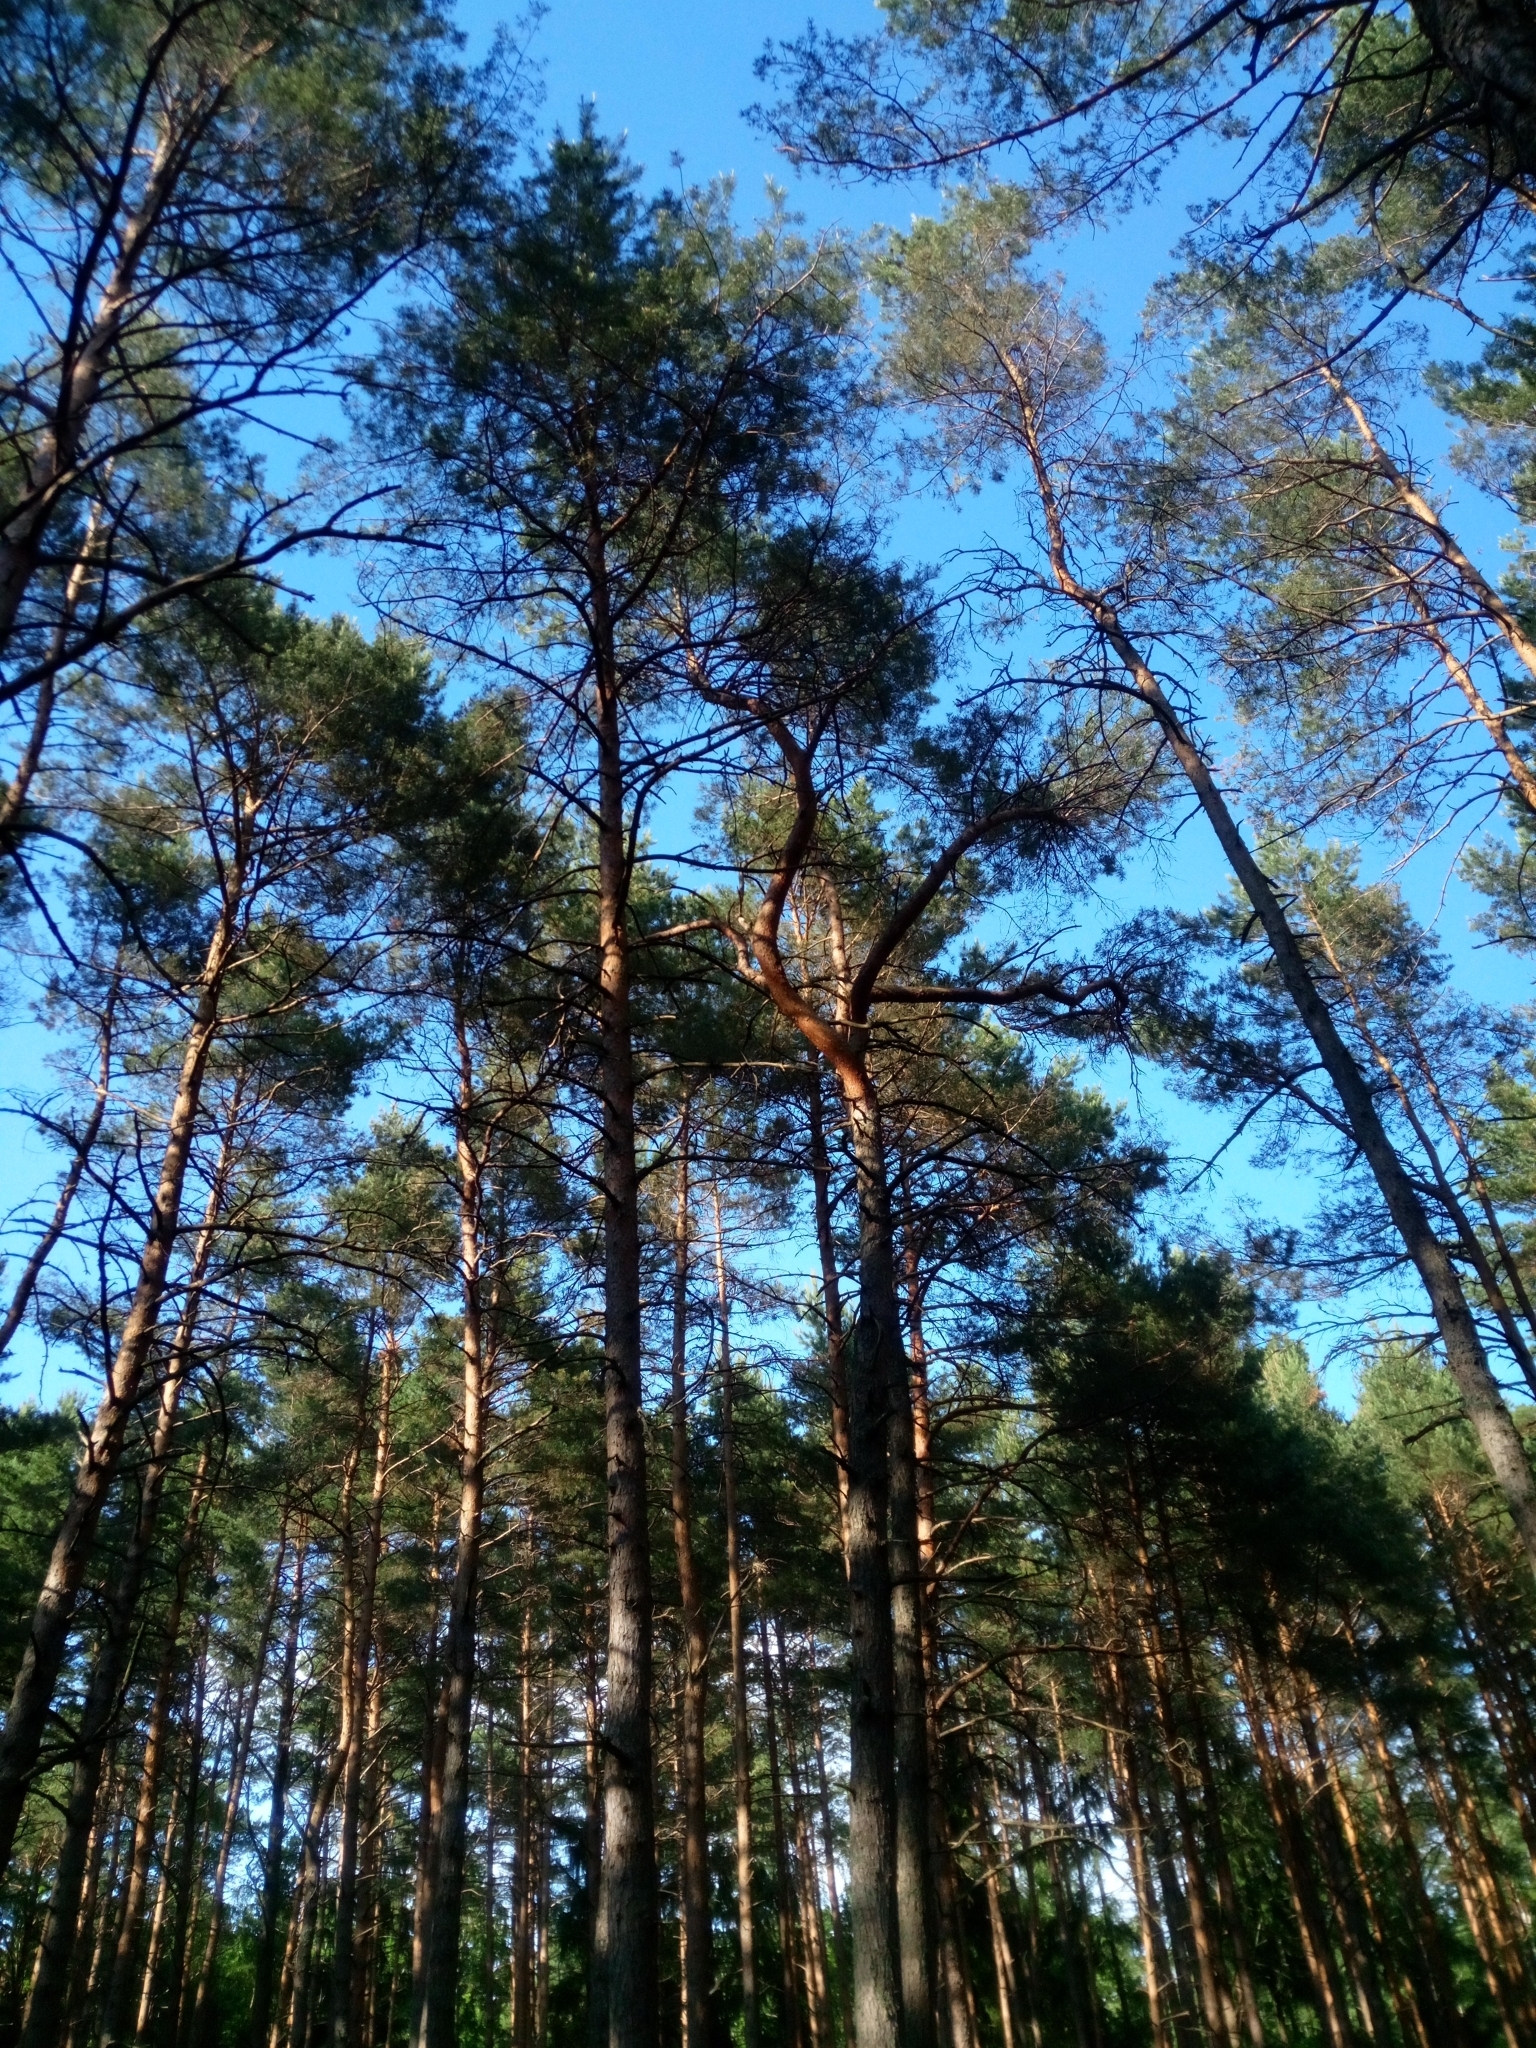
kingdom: Plantae
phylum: Tracheophyta
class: Pinopsida
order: Pinales
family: Pinaceae
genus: Pinus
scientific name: Pinus sylvestris
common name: Scots pine
